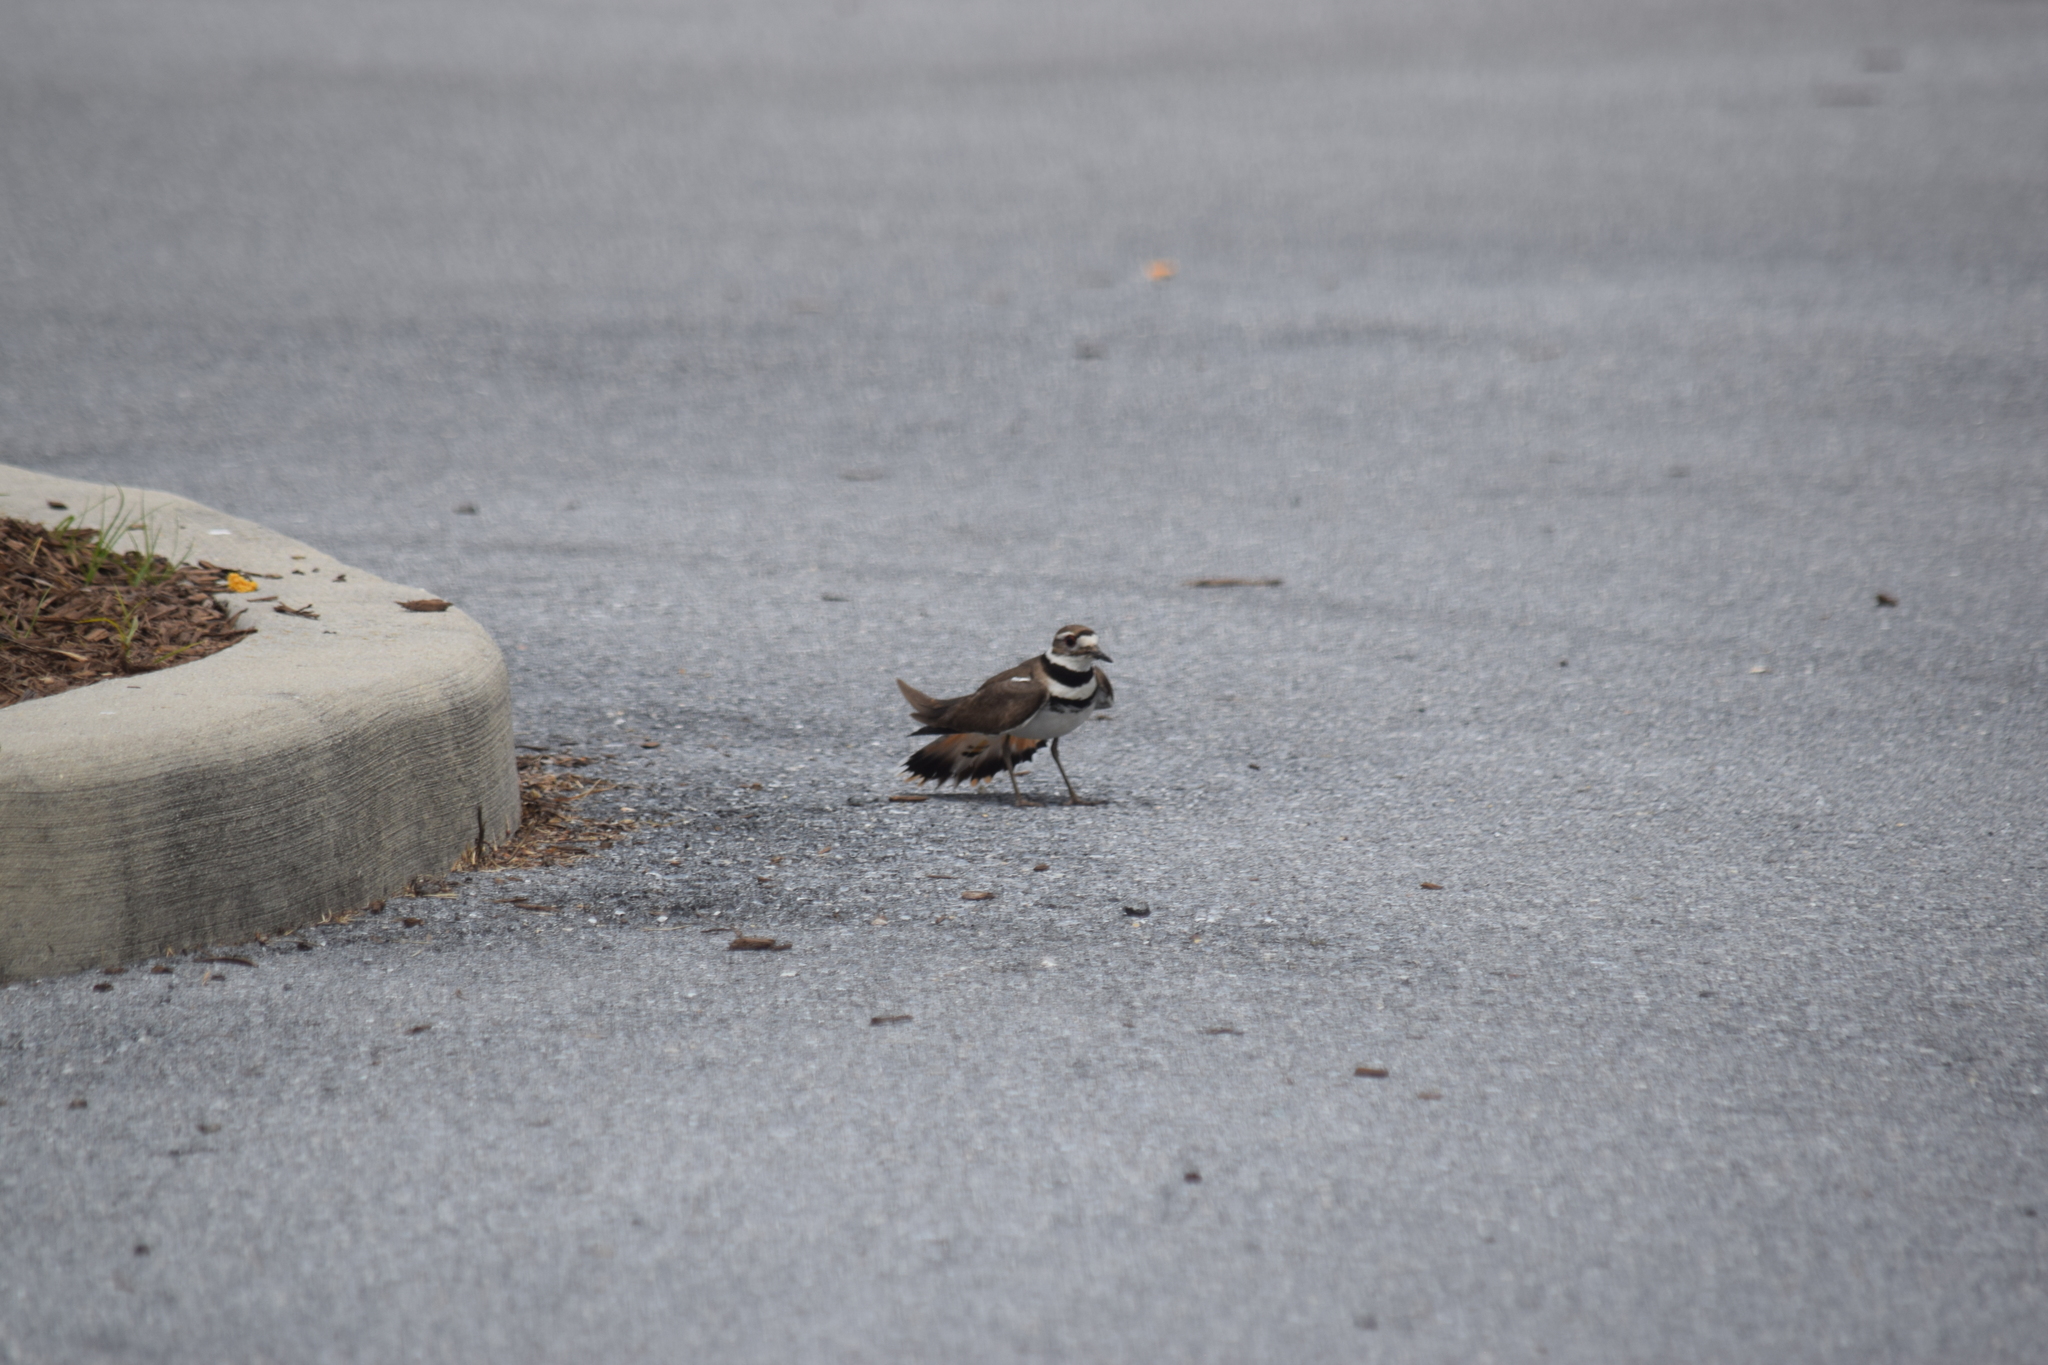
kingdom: Animalia
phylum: Chordata
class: Aves
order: Charadriiformes
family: Charadriidae
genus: Charadrius
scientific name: Charadrius vociferus
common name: Killdeer
